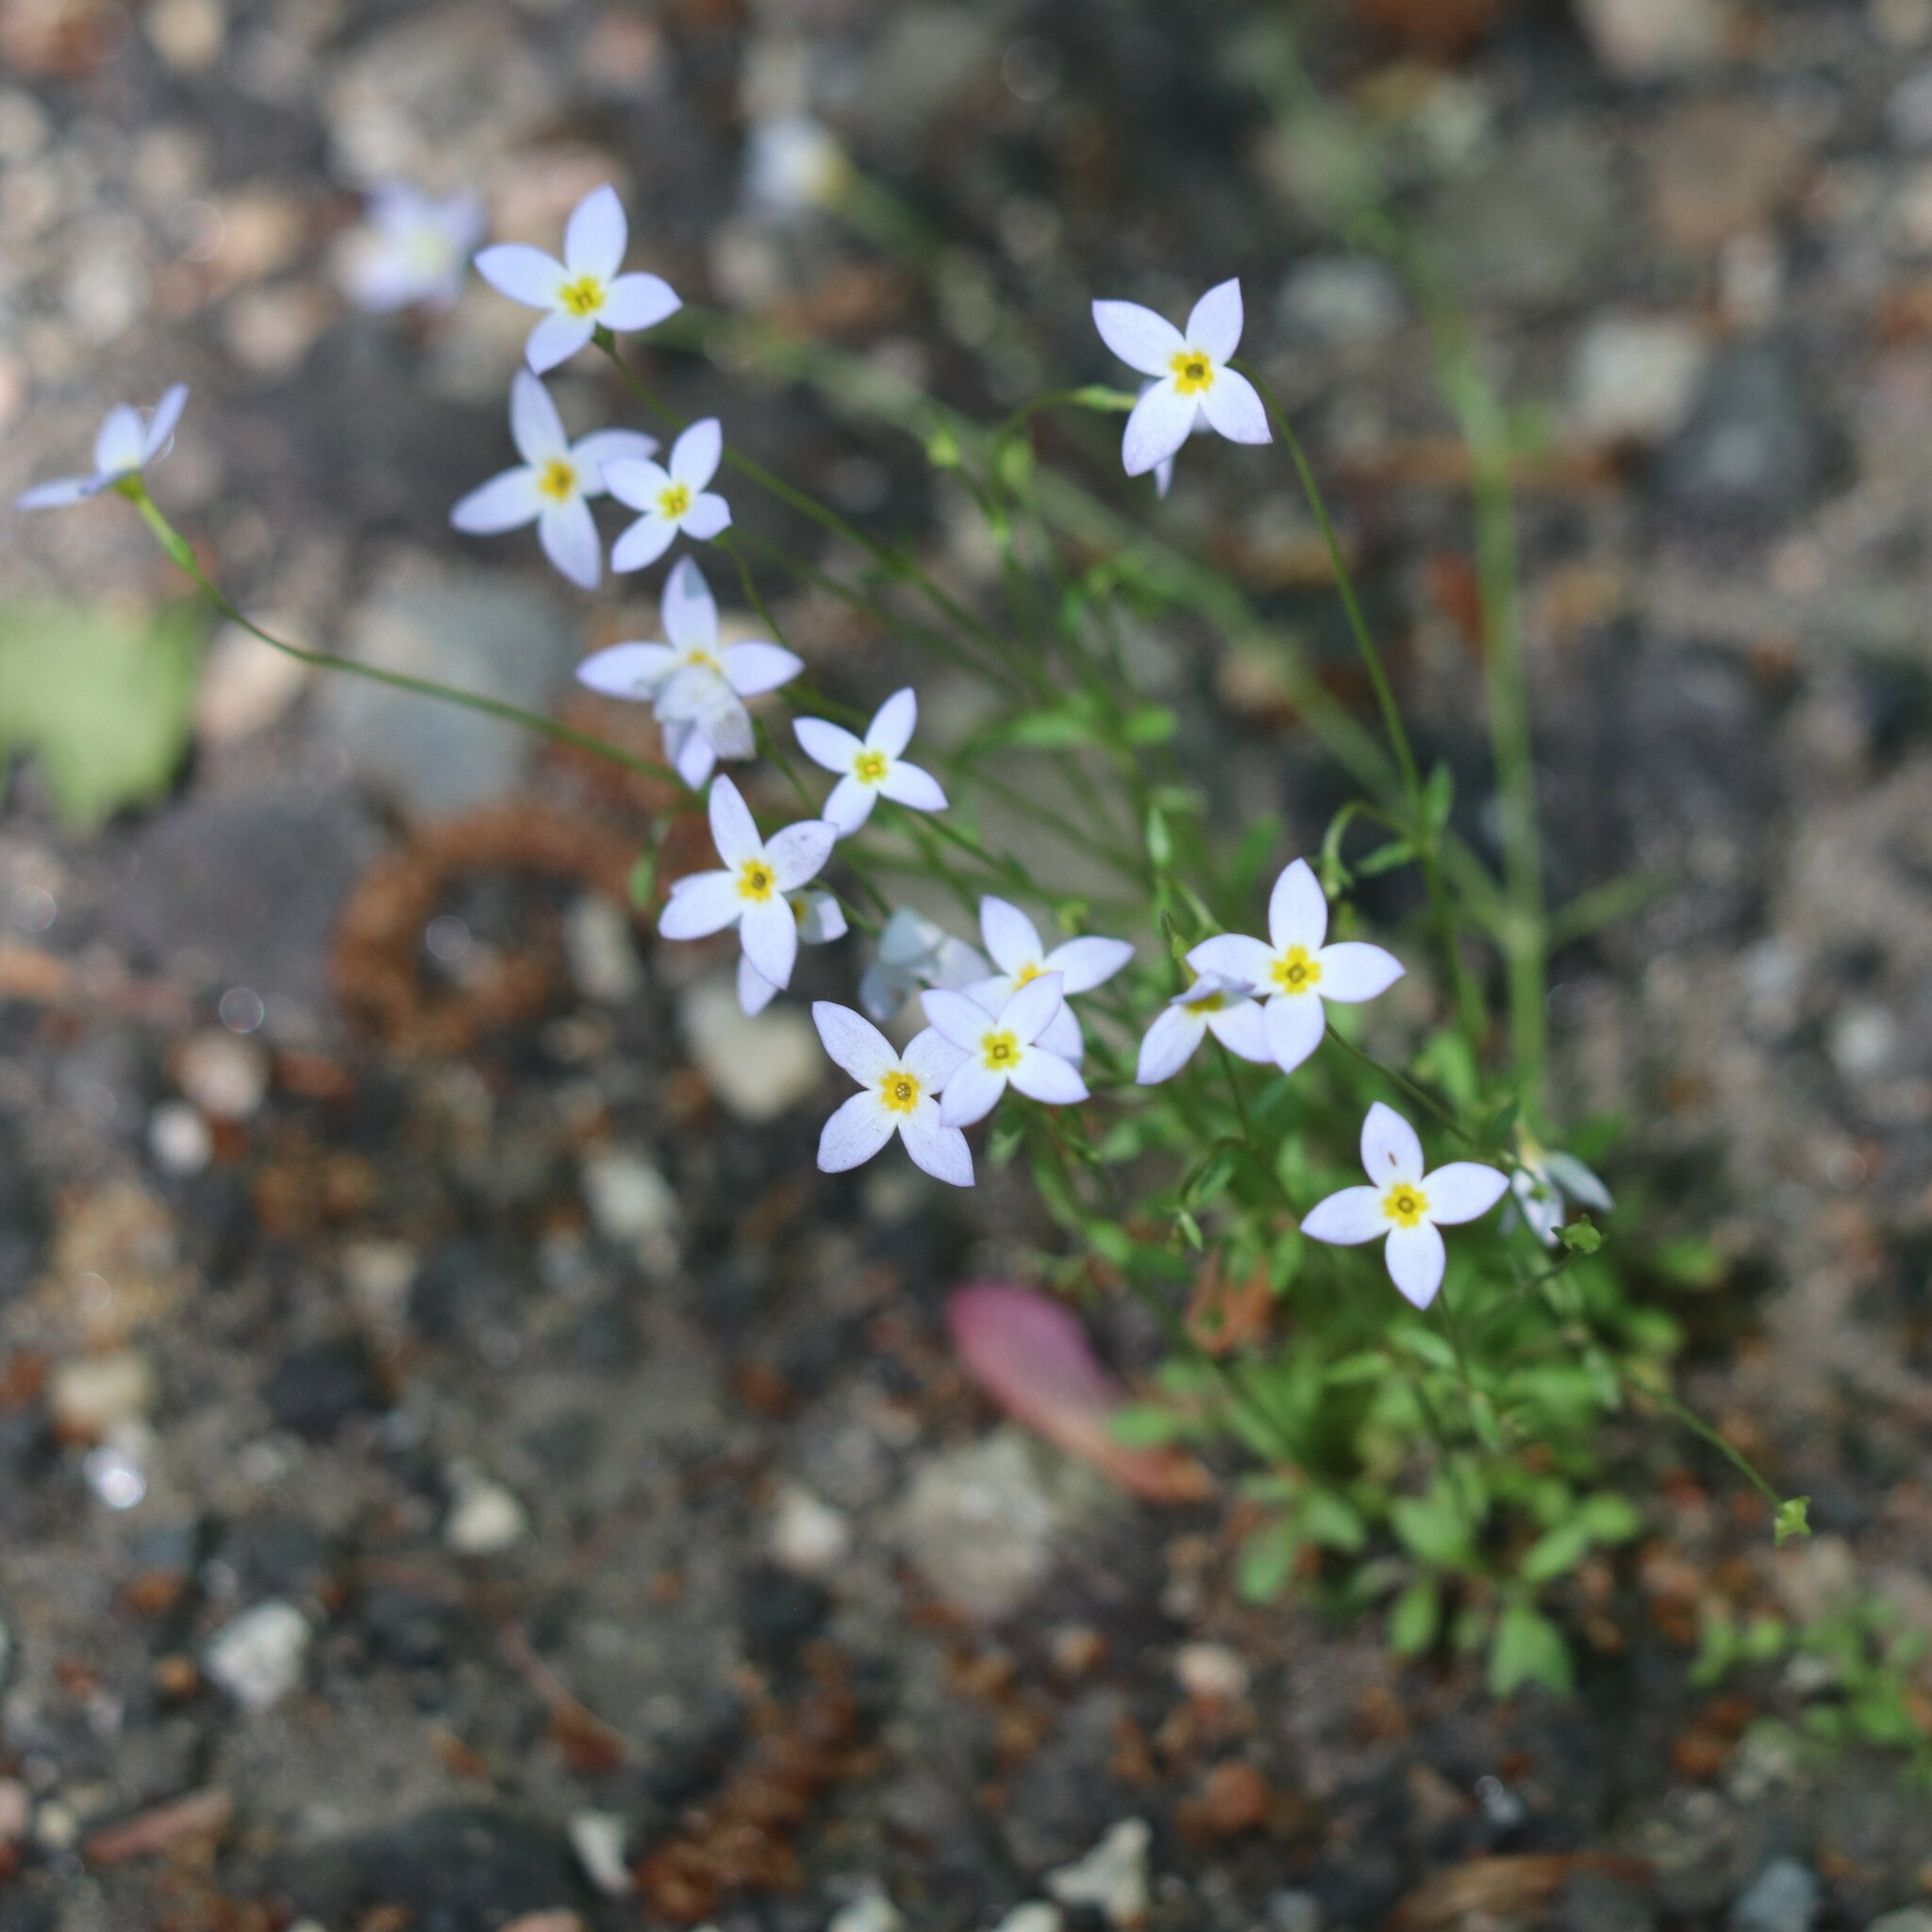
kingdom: Plantae
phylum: Tracheophyta
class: Magnoliopsida
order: Gentianales
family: Rubiaceae
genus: Houstonia
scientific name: Houstonia caerulea
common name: Bluets
